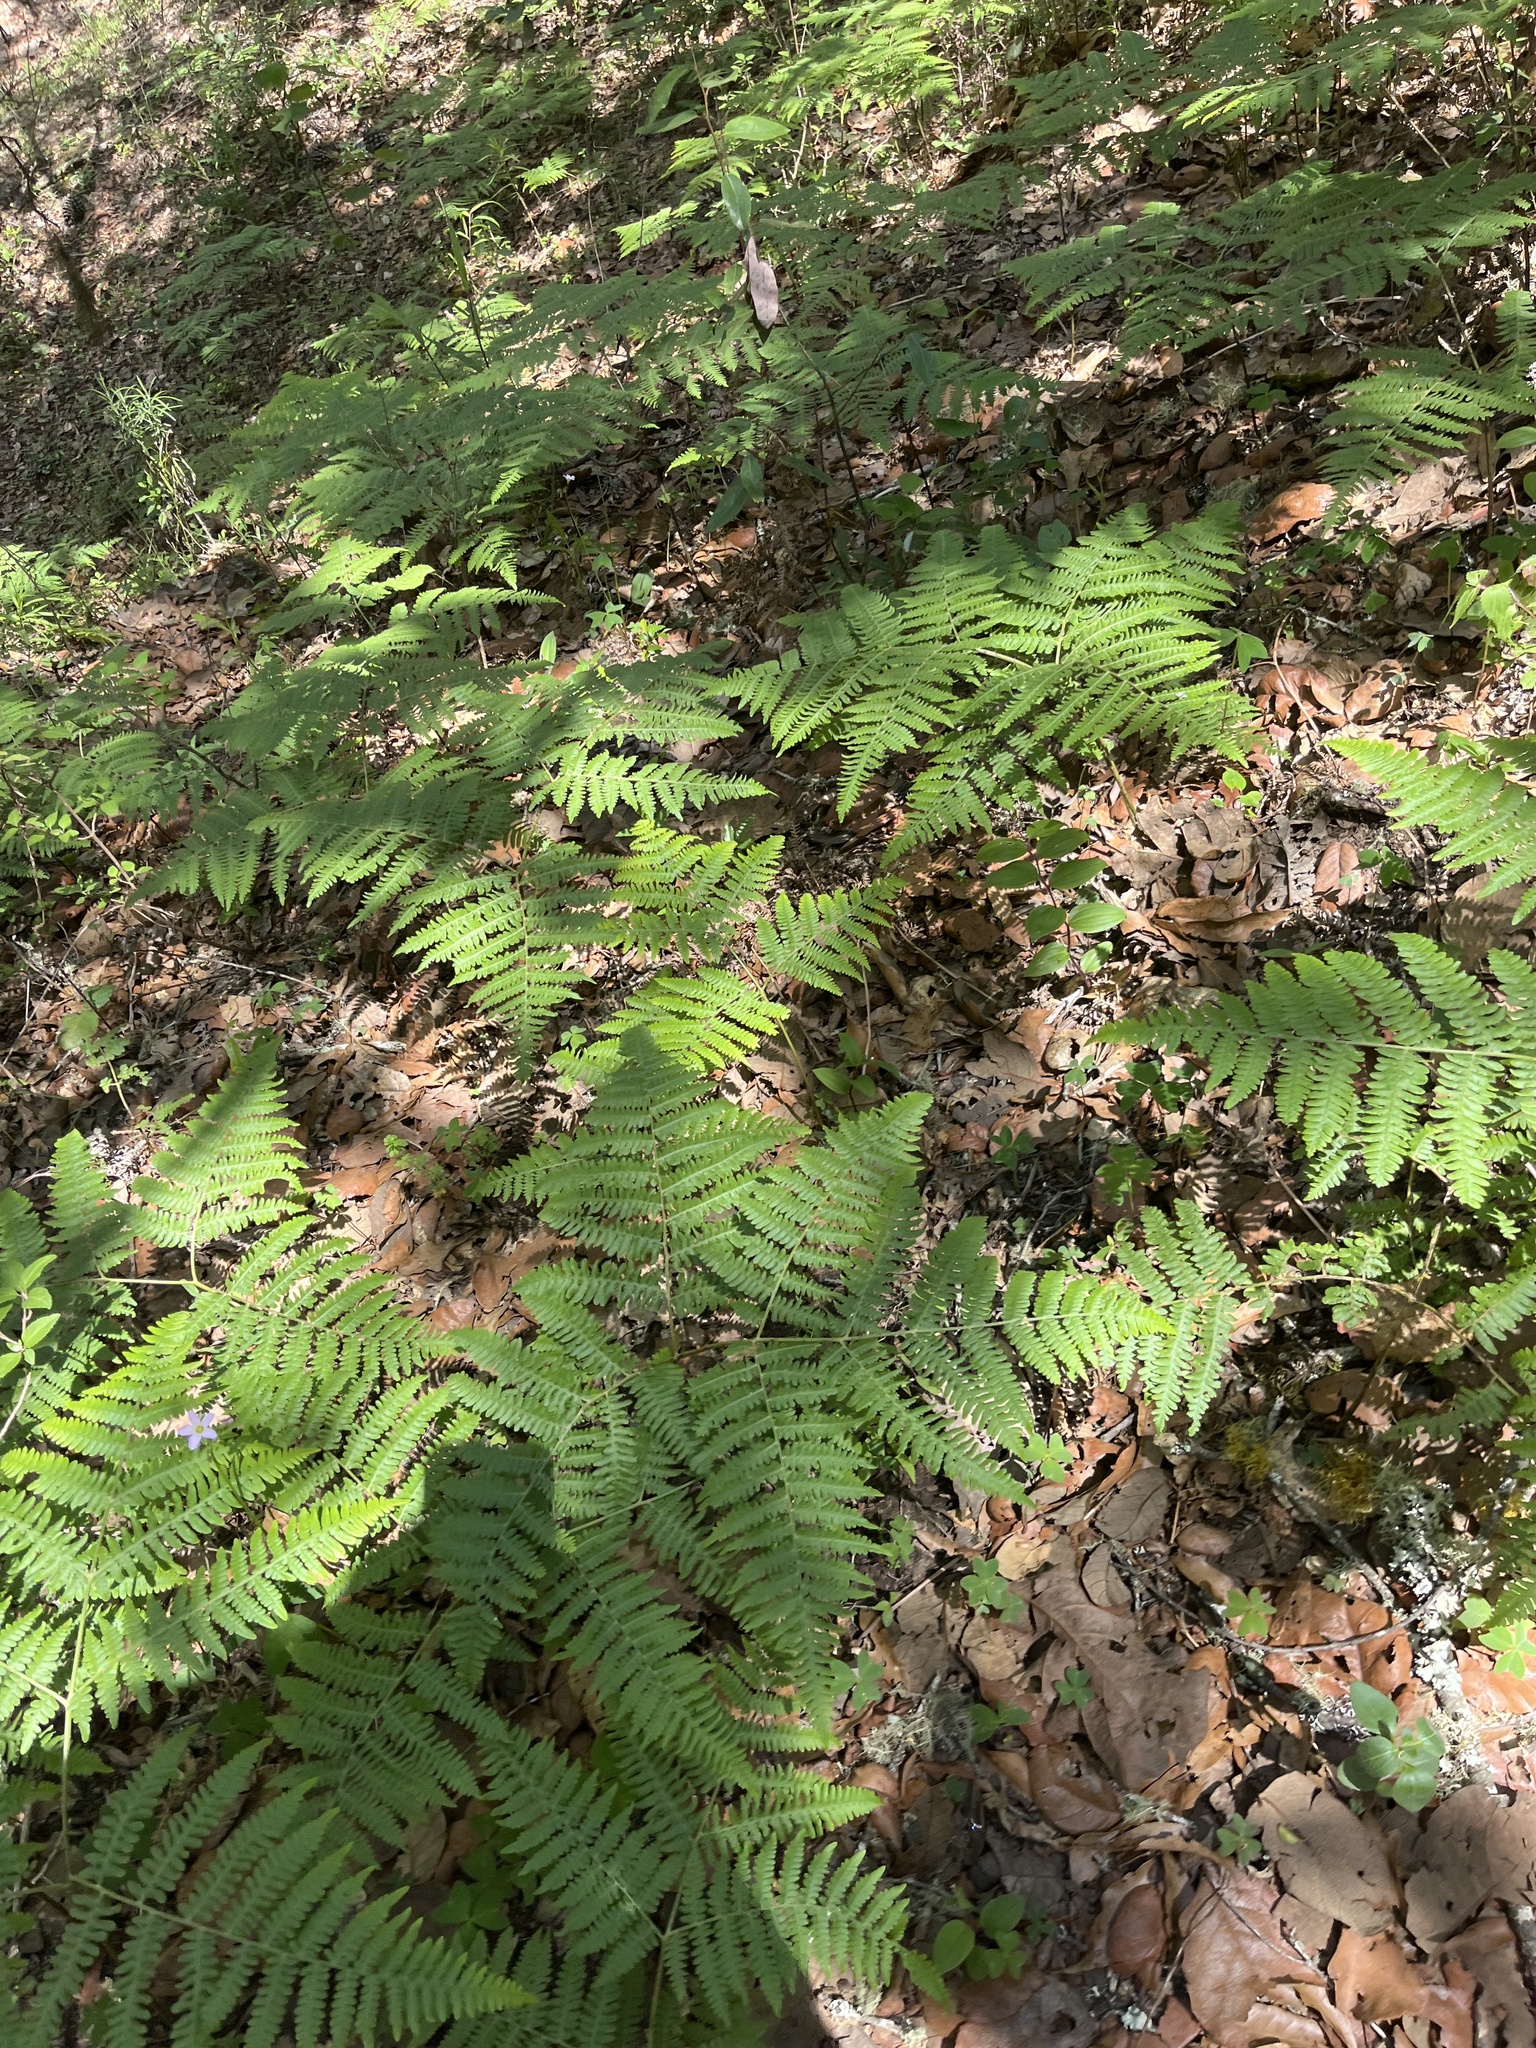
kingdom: Plantae
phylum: Tracheophyta
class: Polypodiopsida
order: Polypodiales
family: Dennstaedtiaceae
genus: Pteridium
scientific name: Pteridium aquilinum
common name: Bracken
